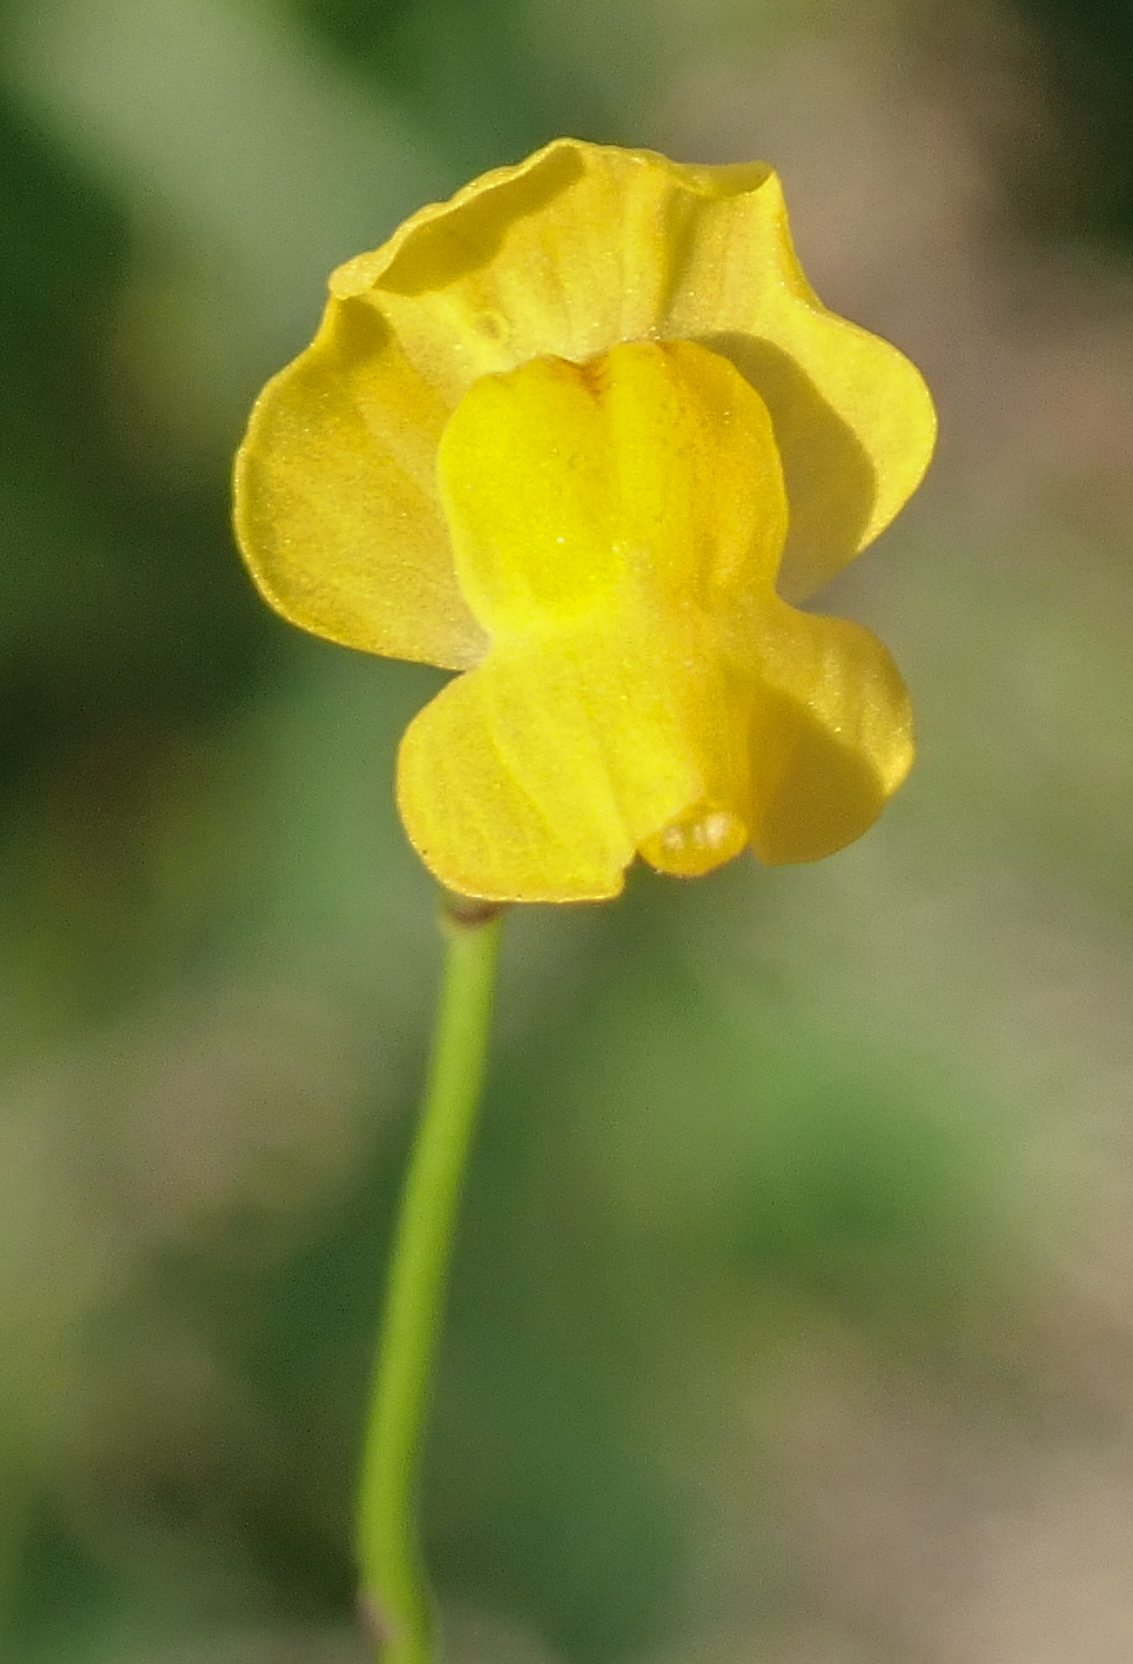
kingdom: Plantae
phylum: Tracheophyta
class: Magnoliopsida
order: Lamiales
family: Lentibulariaceae
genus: Utricularia
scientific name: Utricularia gibba
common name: Humped bladderwort
